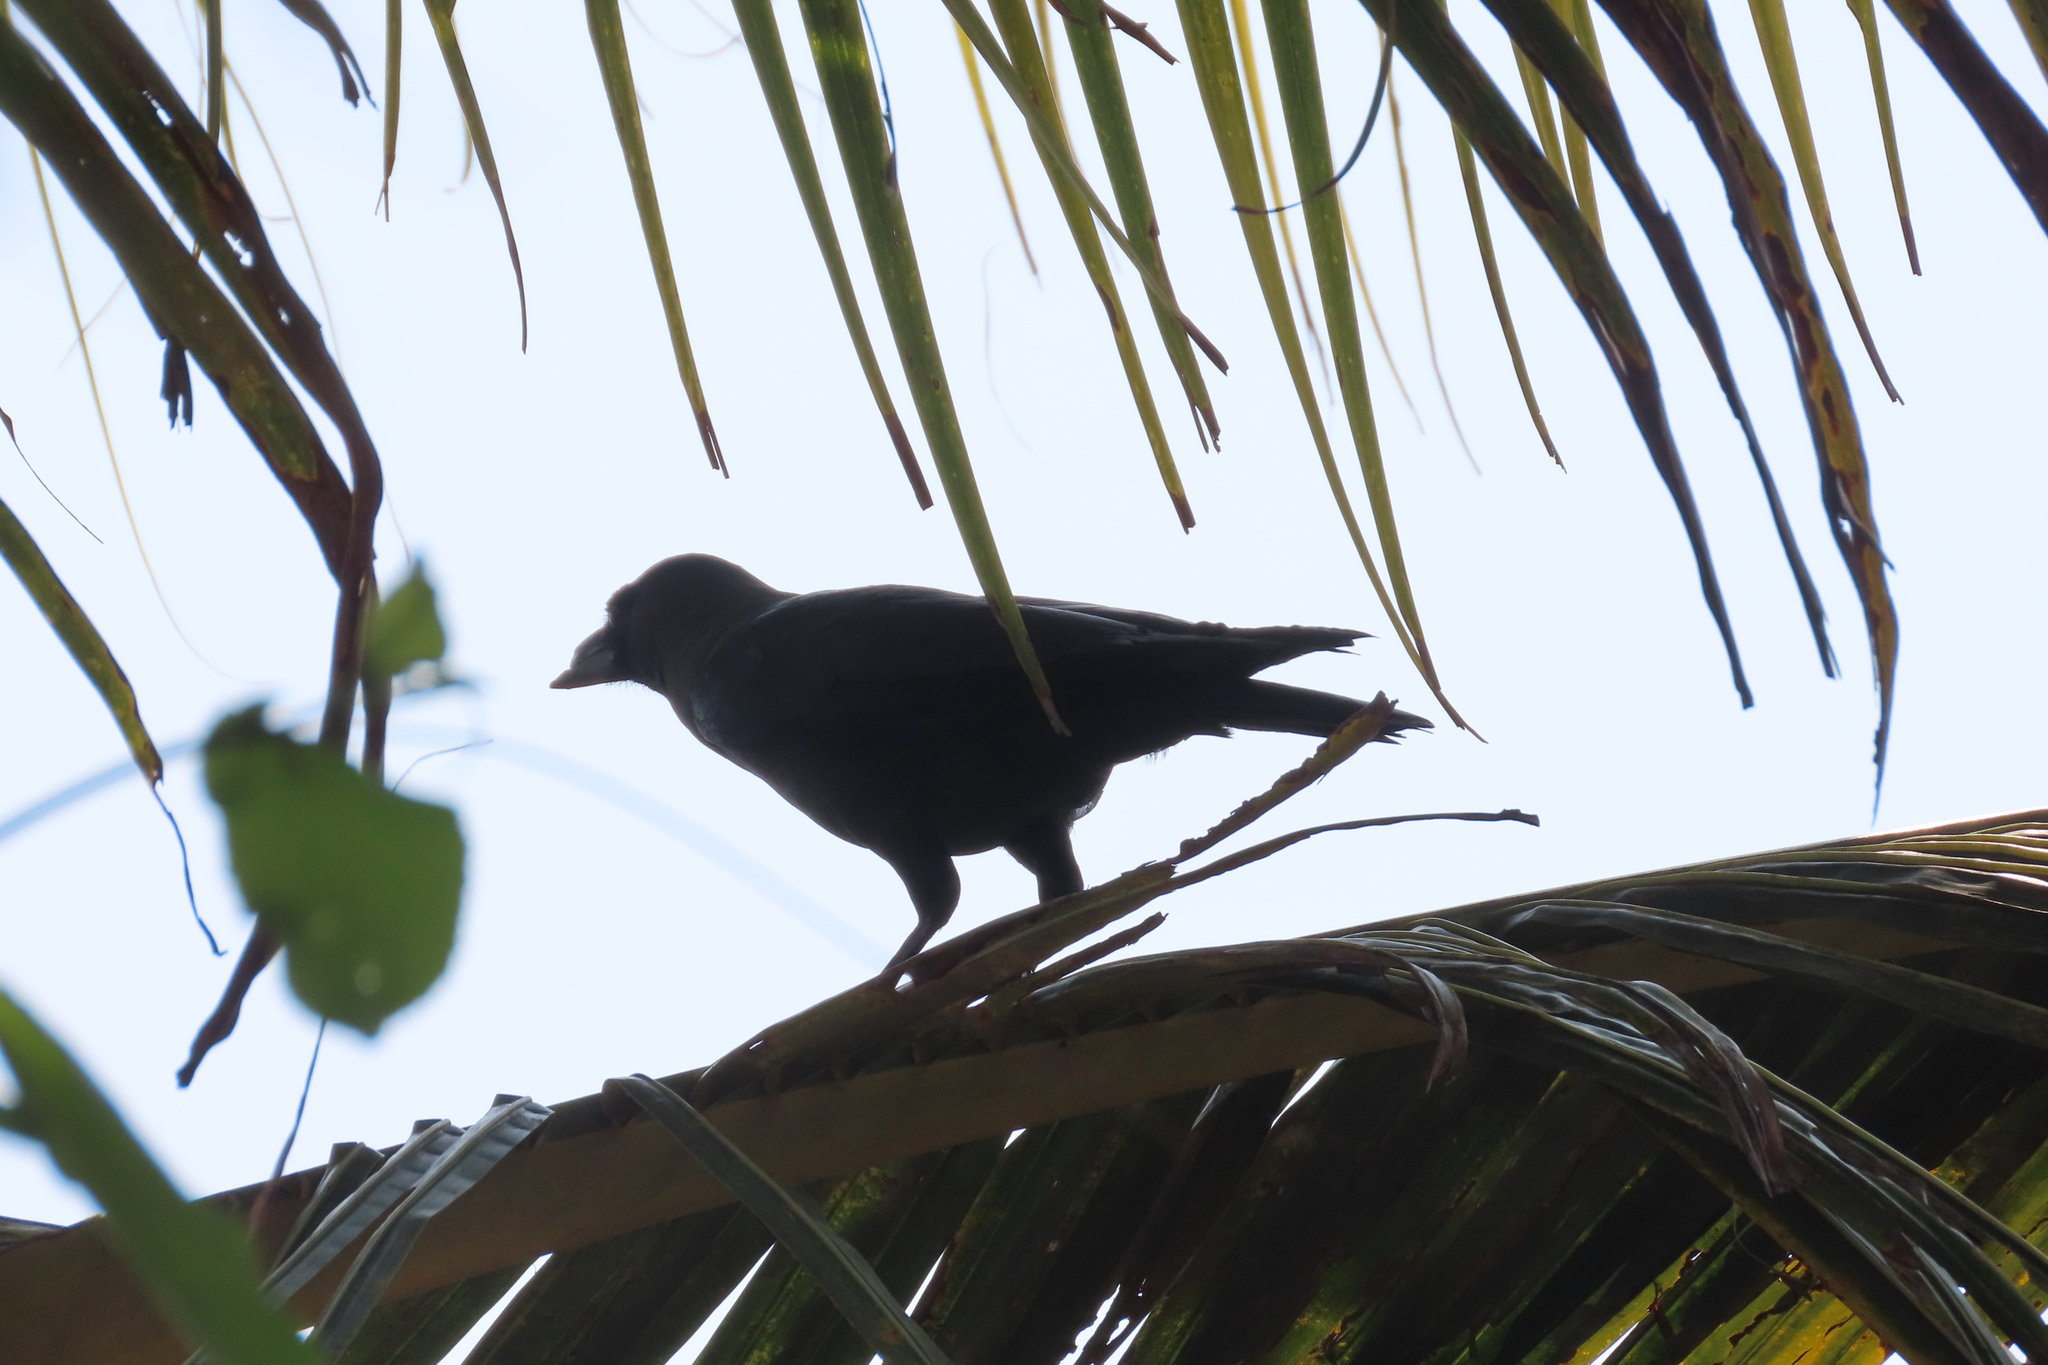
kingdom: Animalia
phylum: Chordata
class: Aves
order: Passeriformes
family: Corvidae
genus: Corvus
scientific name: Corvus splendens
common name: House crow
